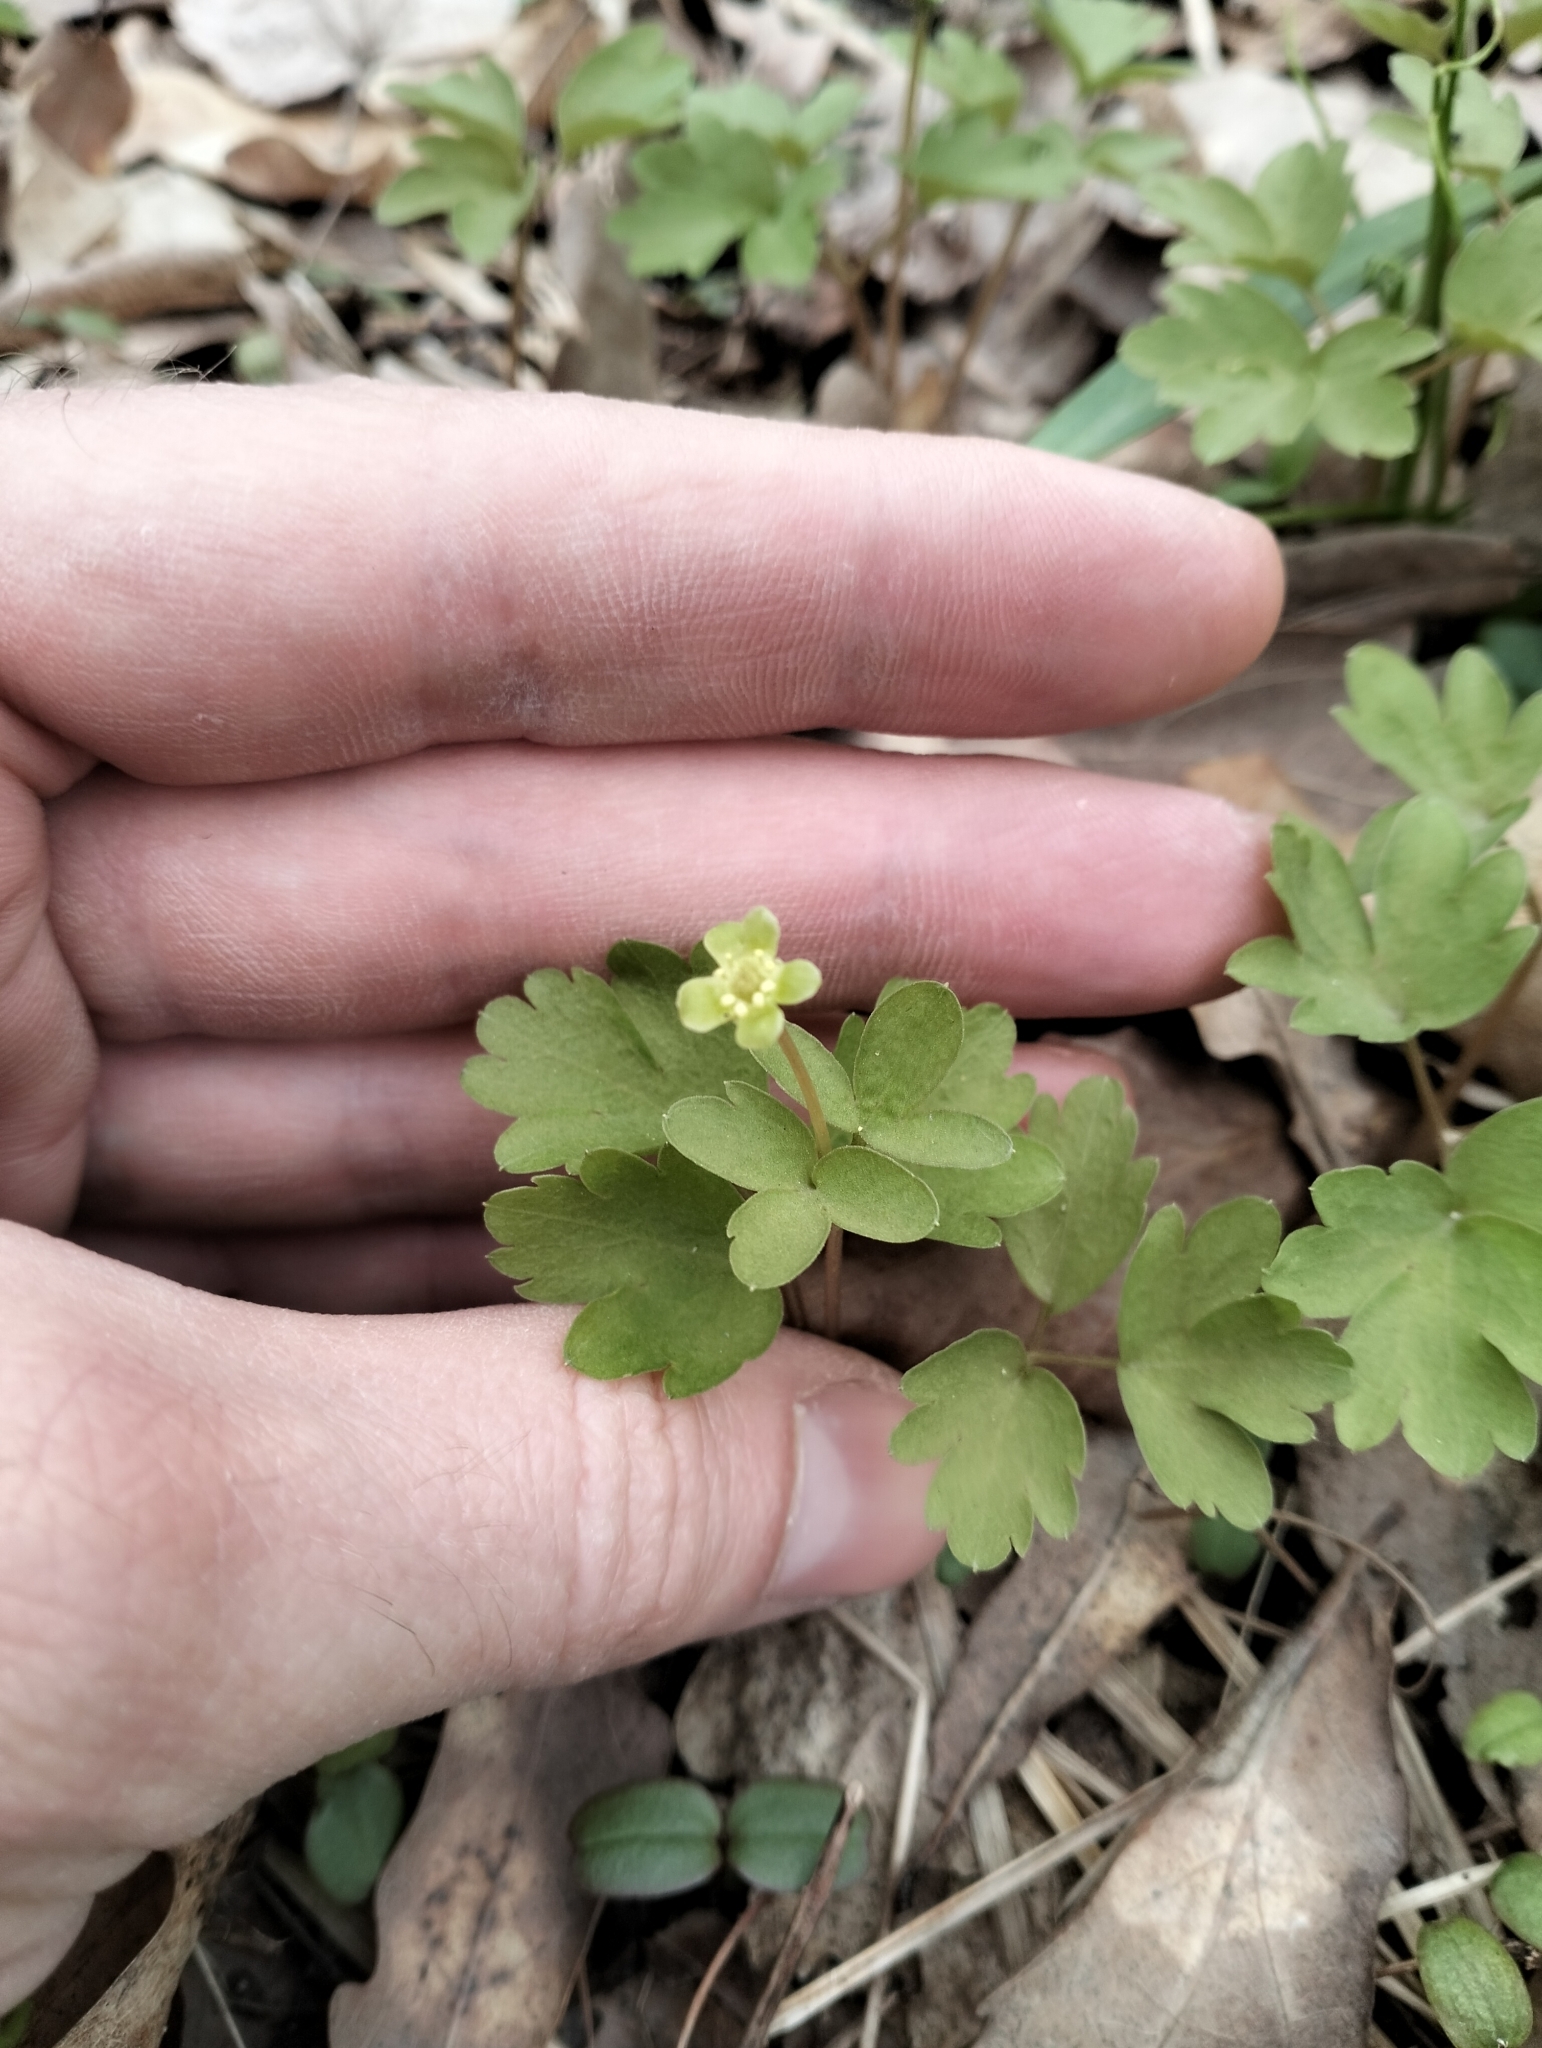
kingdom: Plantae
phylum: Tracheophyta
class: Magnoliopsida
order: Dipsacales
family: Viburnaceae
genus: Adoxa
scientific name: Adoxa moschatellina
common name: Moschatel
